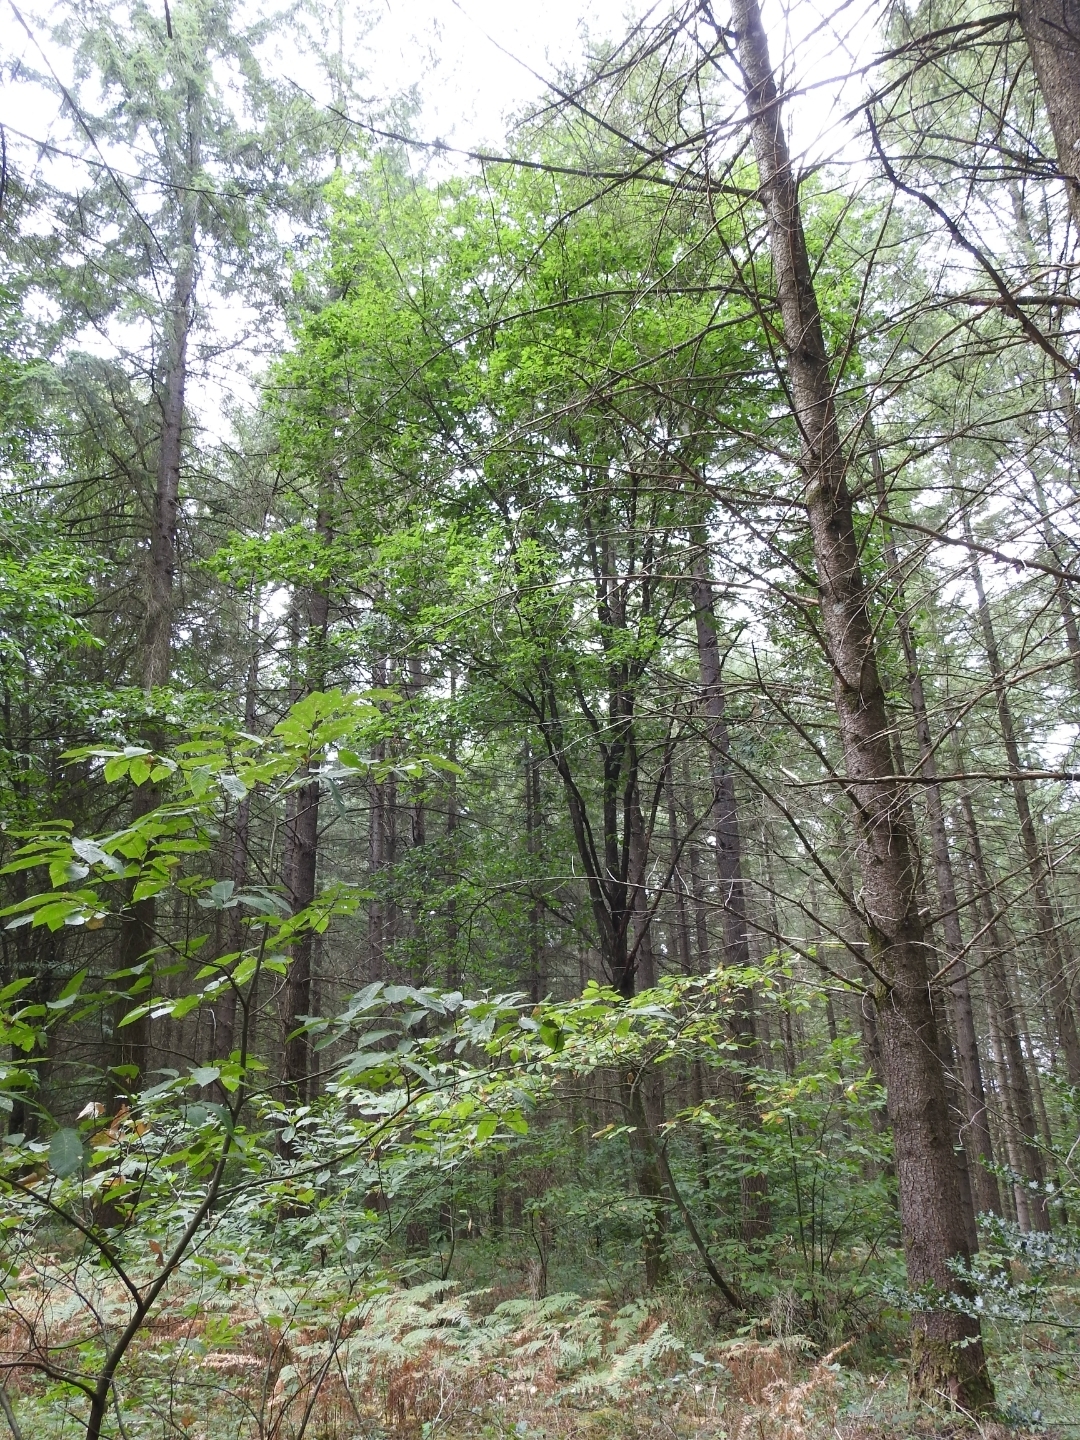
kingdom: Plantae
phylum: Tracheophyta
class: Magnoliopsida
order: Fagales
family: Fagaceae
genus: Quercus
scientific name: Quercus petraea
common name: Sessile oak
